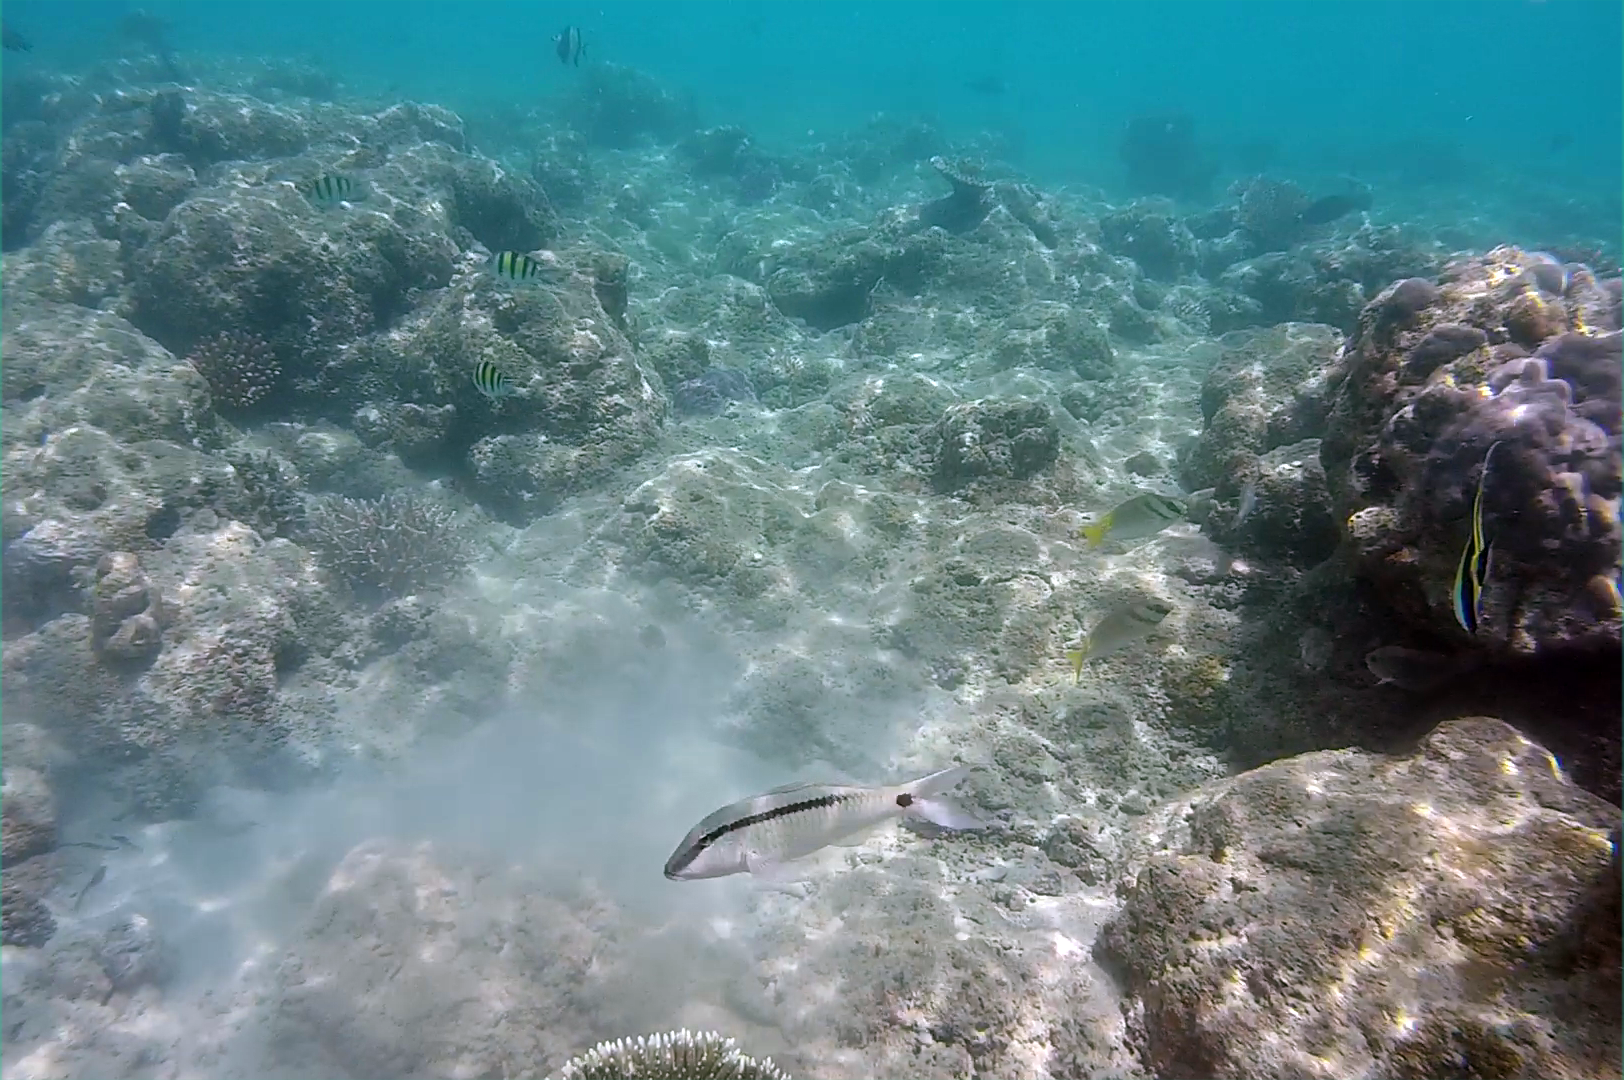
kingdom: Animalia
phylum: Chordata
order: Perciformes
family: Mullidae
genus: Parupeneus
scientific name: Parupeneus barberinus
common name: Dash-and-dot goatfish
